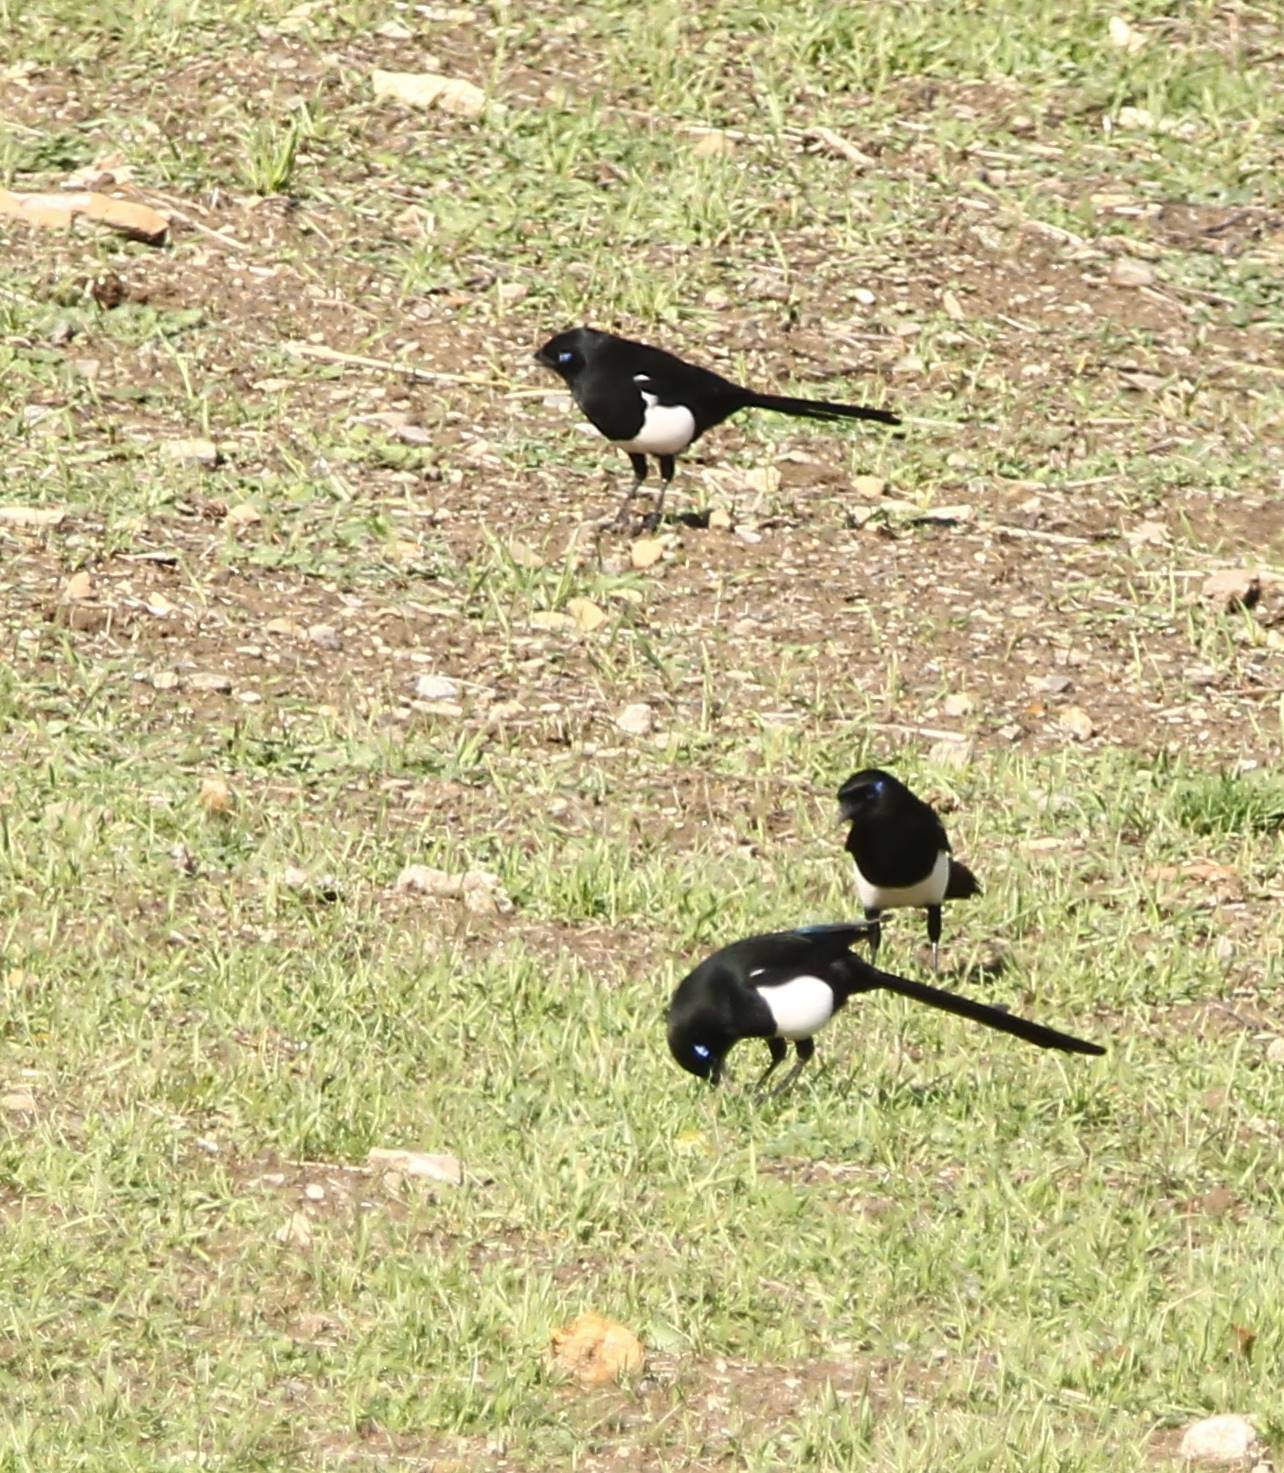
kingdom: Animalia
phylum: Chordata
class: Aves
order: Passeriformes
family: Corvidae
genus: Pica
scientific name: Pica mauritanica
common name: Maghreb magpie
